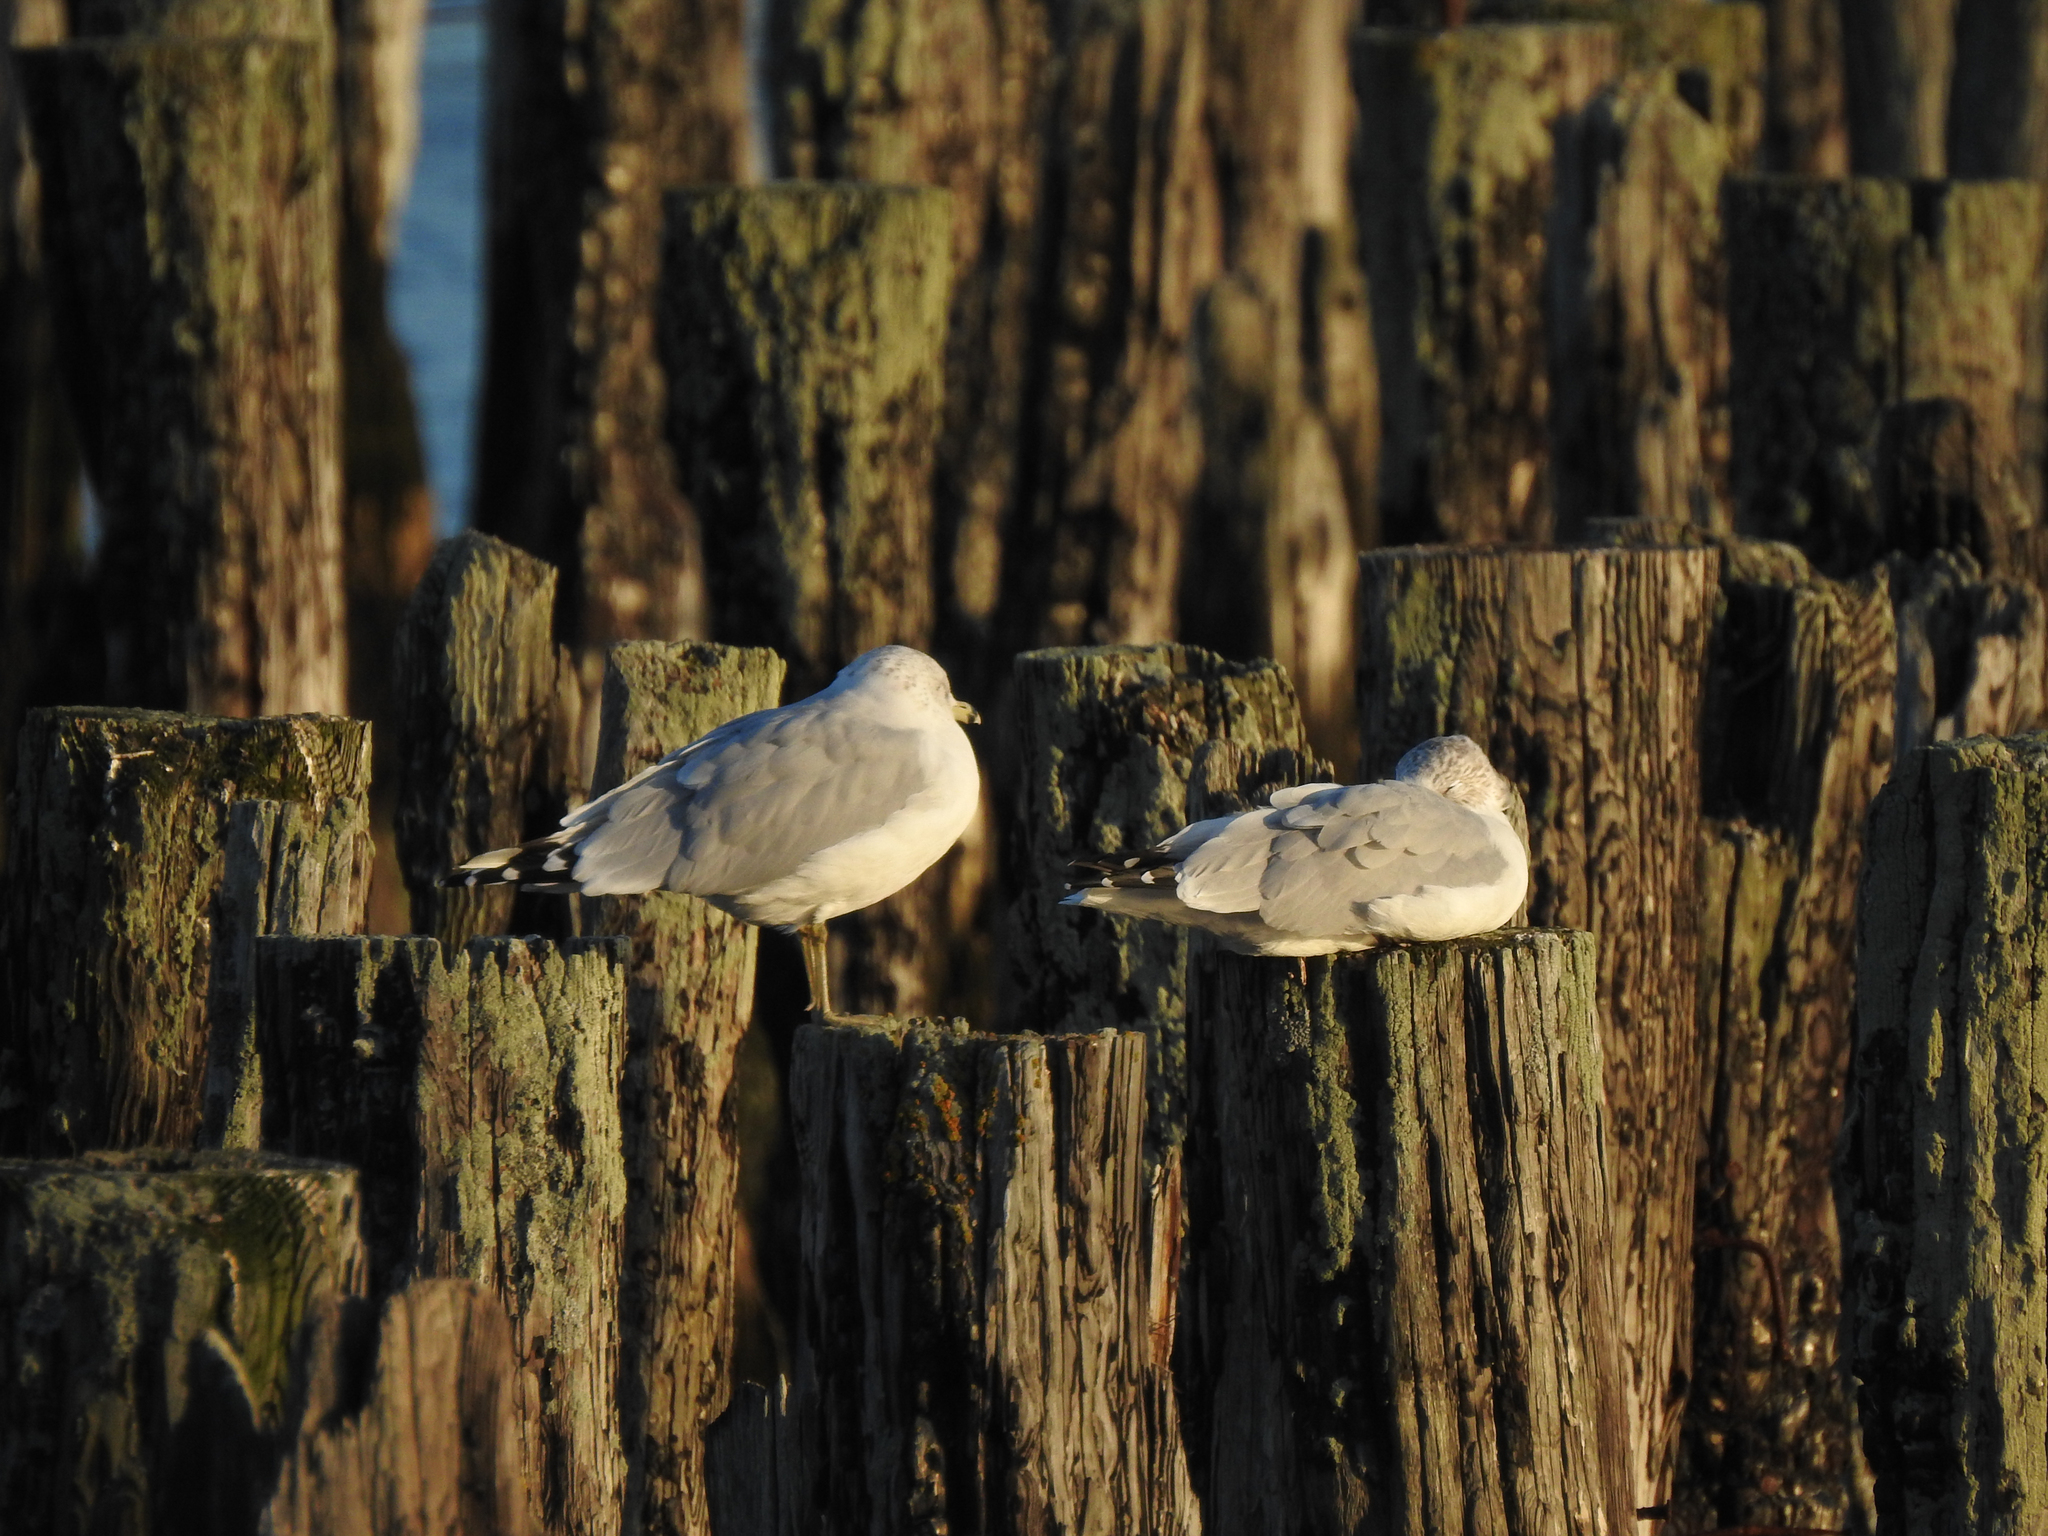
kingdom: Animalia
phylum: Chordata
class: Aves
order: Charadriiformes
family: Laridae
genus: Larus
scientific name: Larus delawarensis
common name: Ring-billed gull
